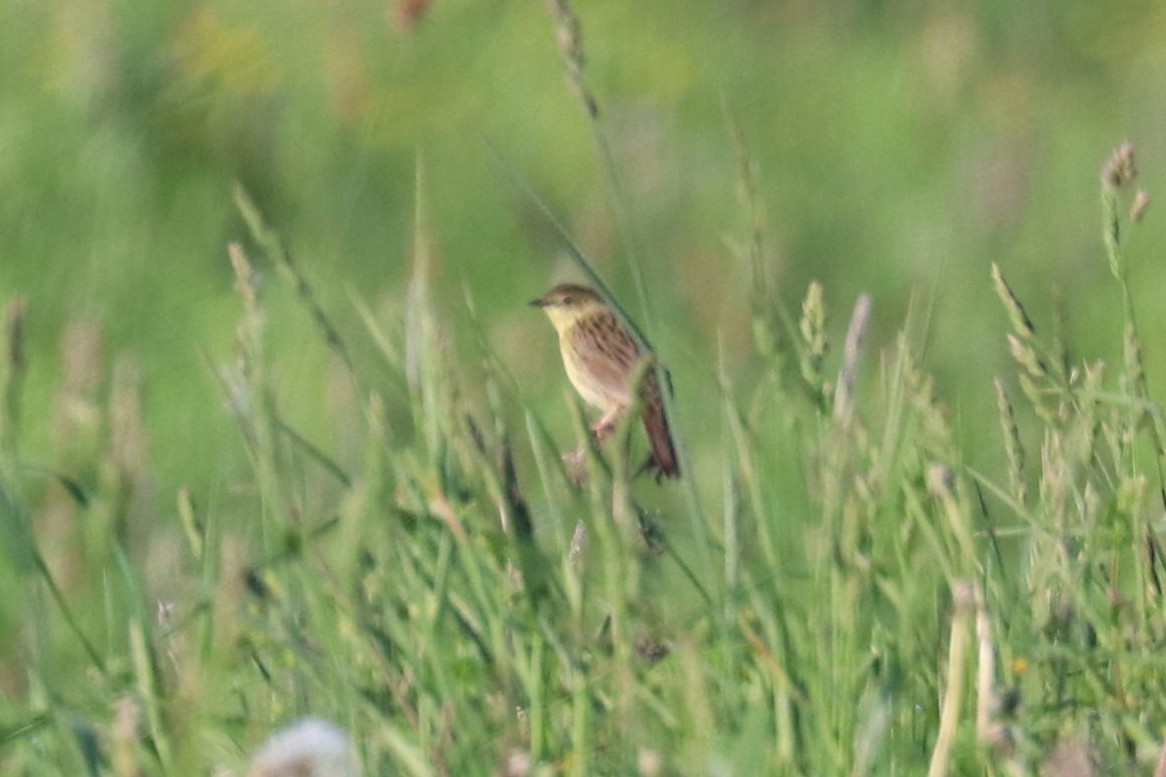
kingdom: Animalia
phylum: Chordata
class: Aves
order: Passeriformes
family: Locustellidae
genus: Locustella
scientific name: Locustella naevia
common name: Common grasshopper warbler
